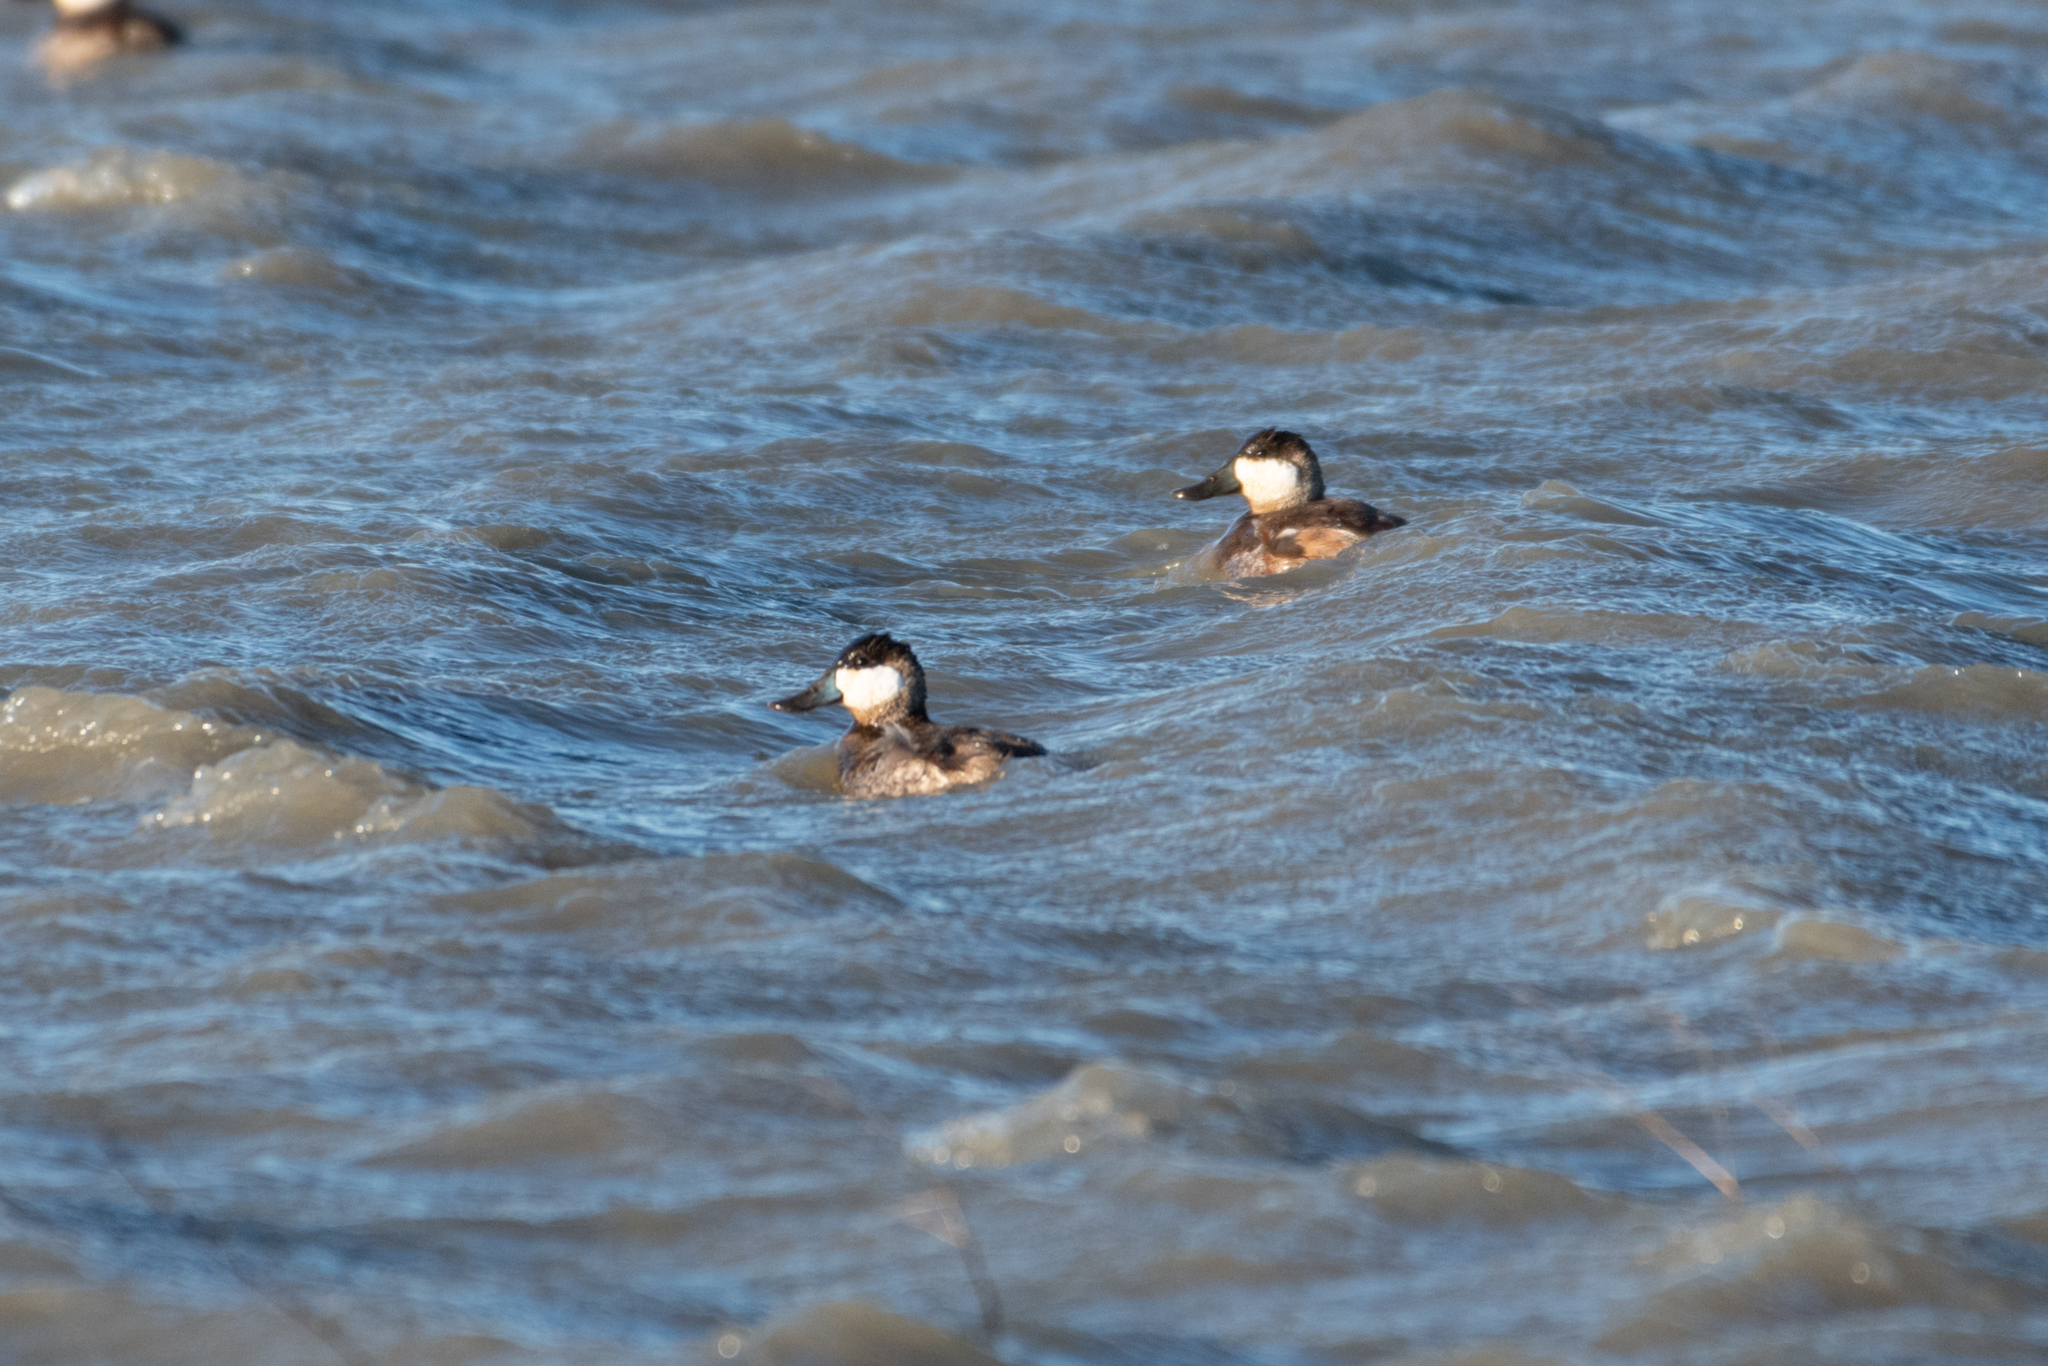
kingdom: Animalia
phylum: Chordata
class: Aves
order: Anseriformes
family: Anatidae
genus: Oxyura
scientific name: Oxyura jamaicensis
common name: Ruddy duck
